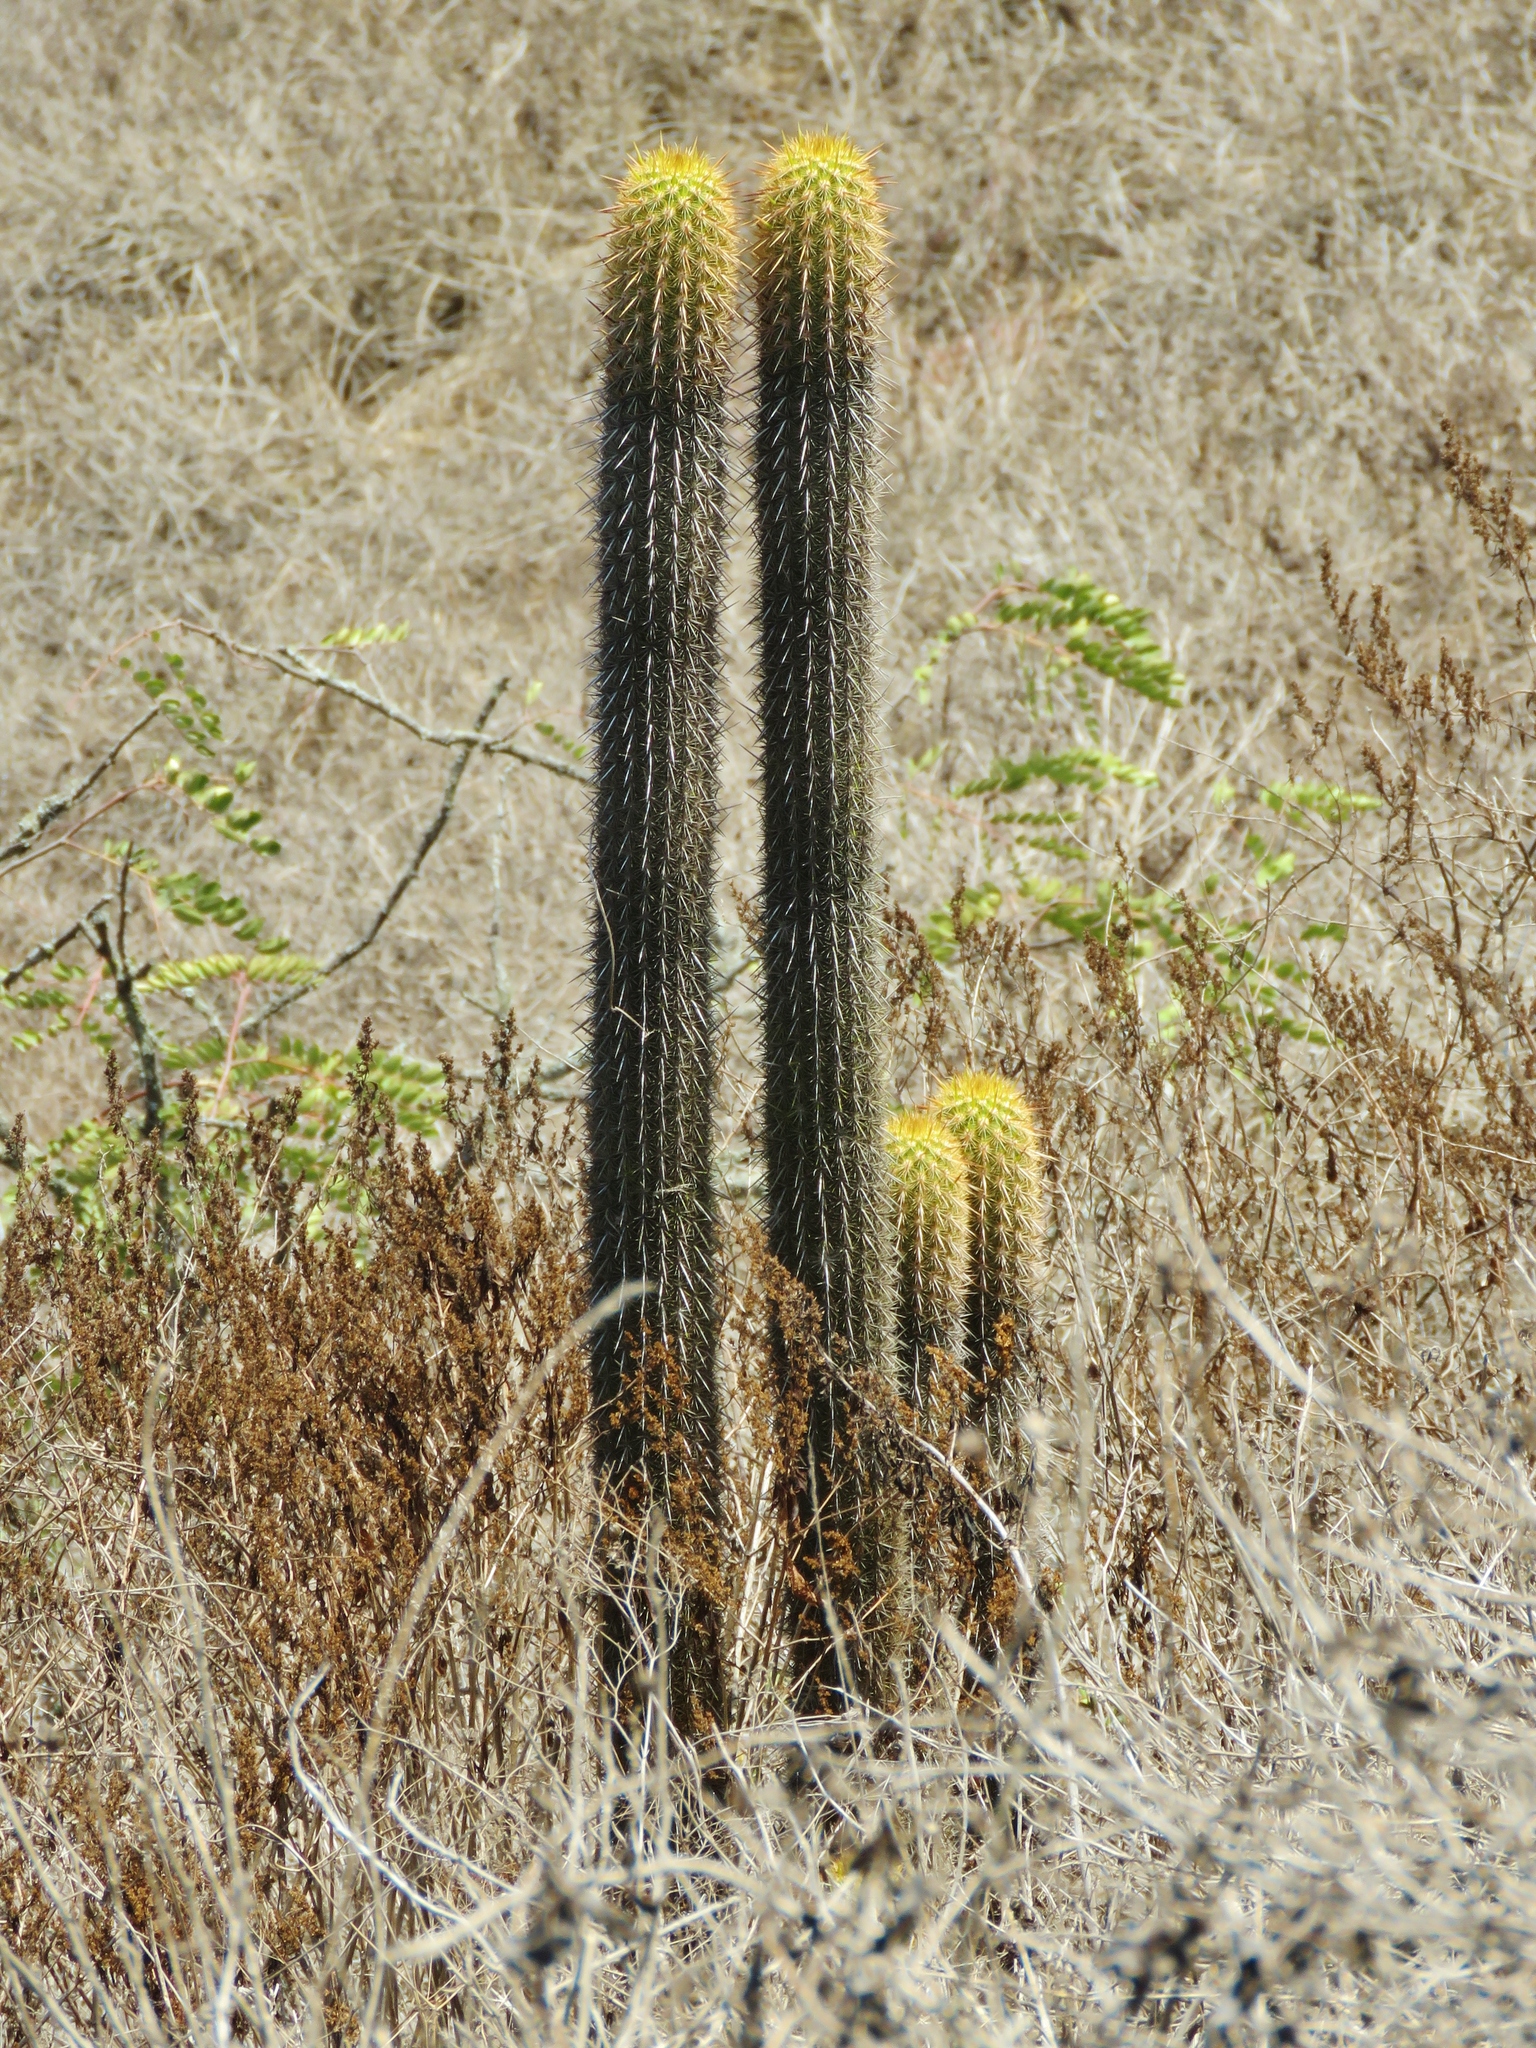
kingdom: Plantae
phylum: Tracheophyta
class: Magnoliopsida
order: Caryophyllales
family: Cactaceae
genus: Haageocereus
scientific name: Haageocereus pseudomelanostele
